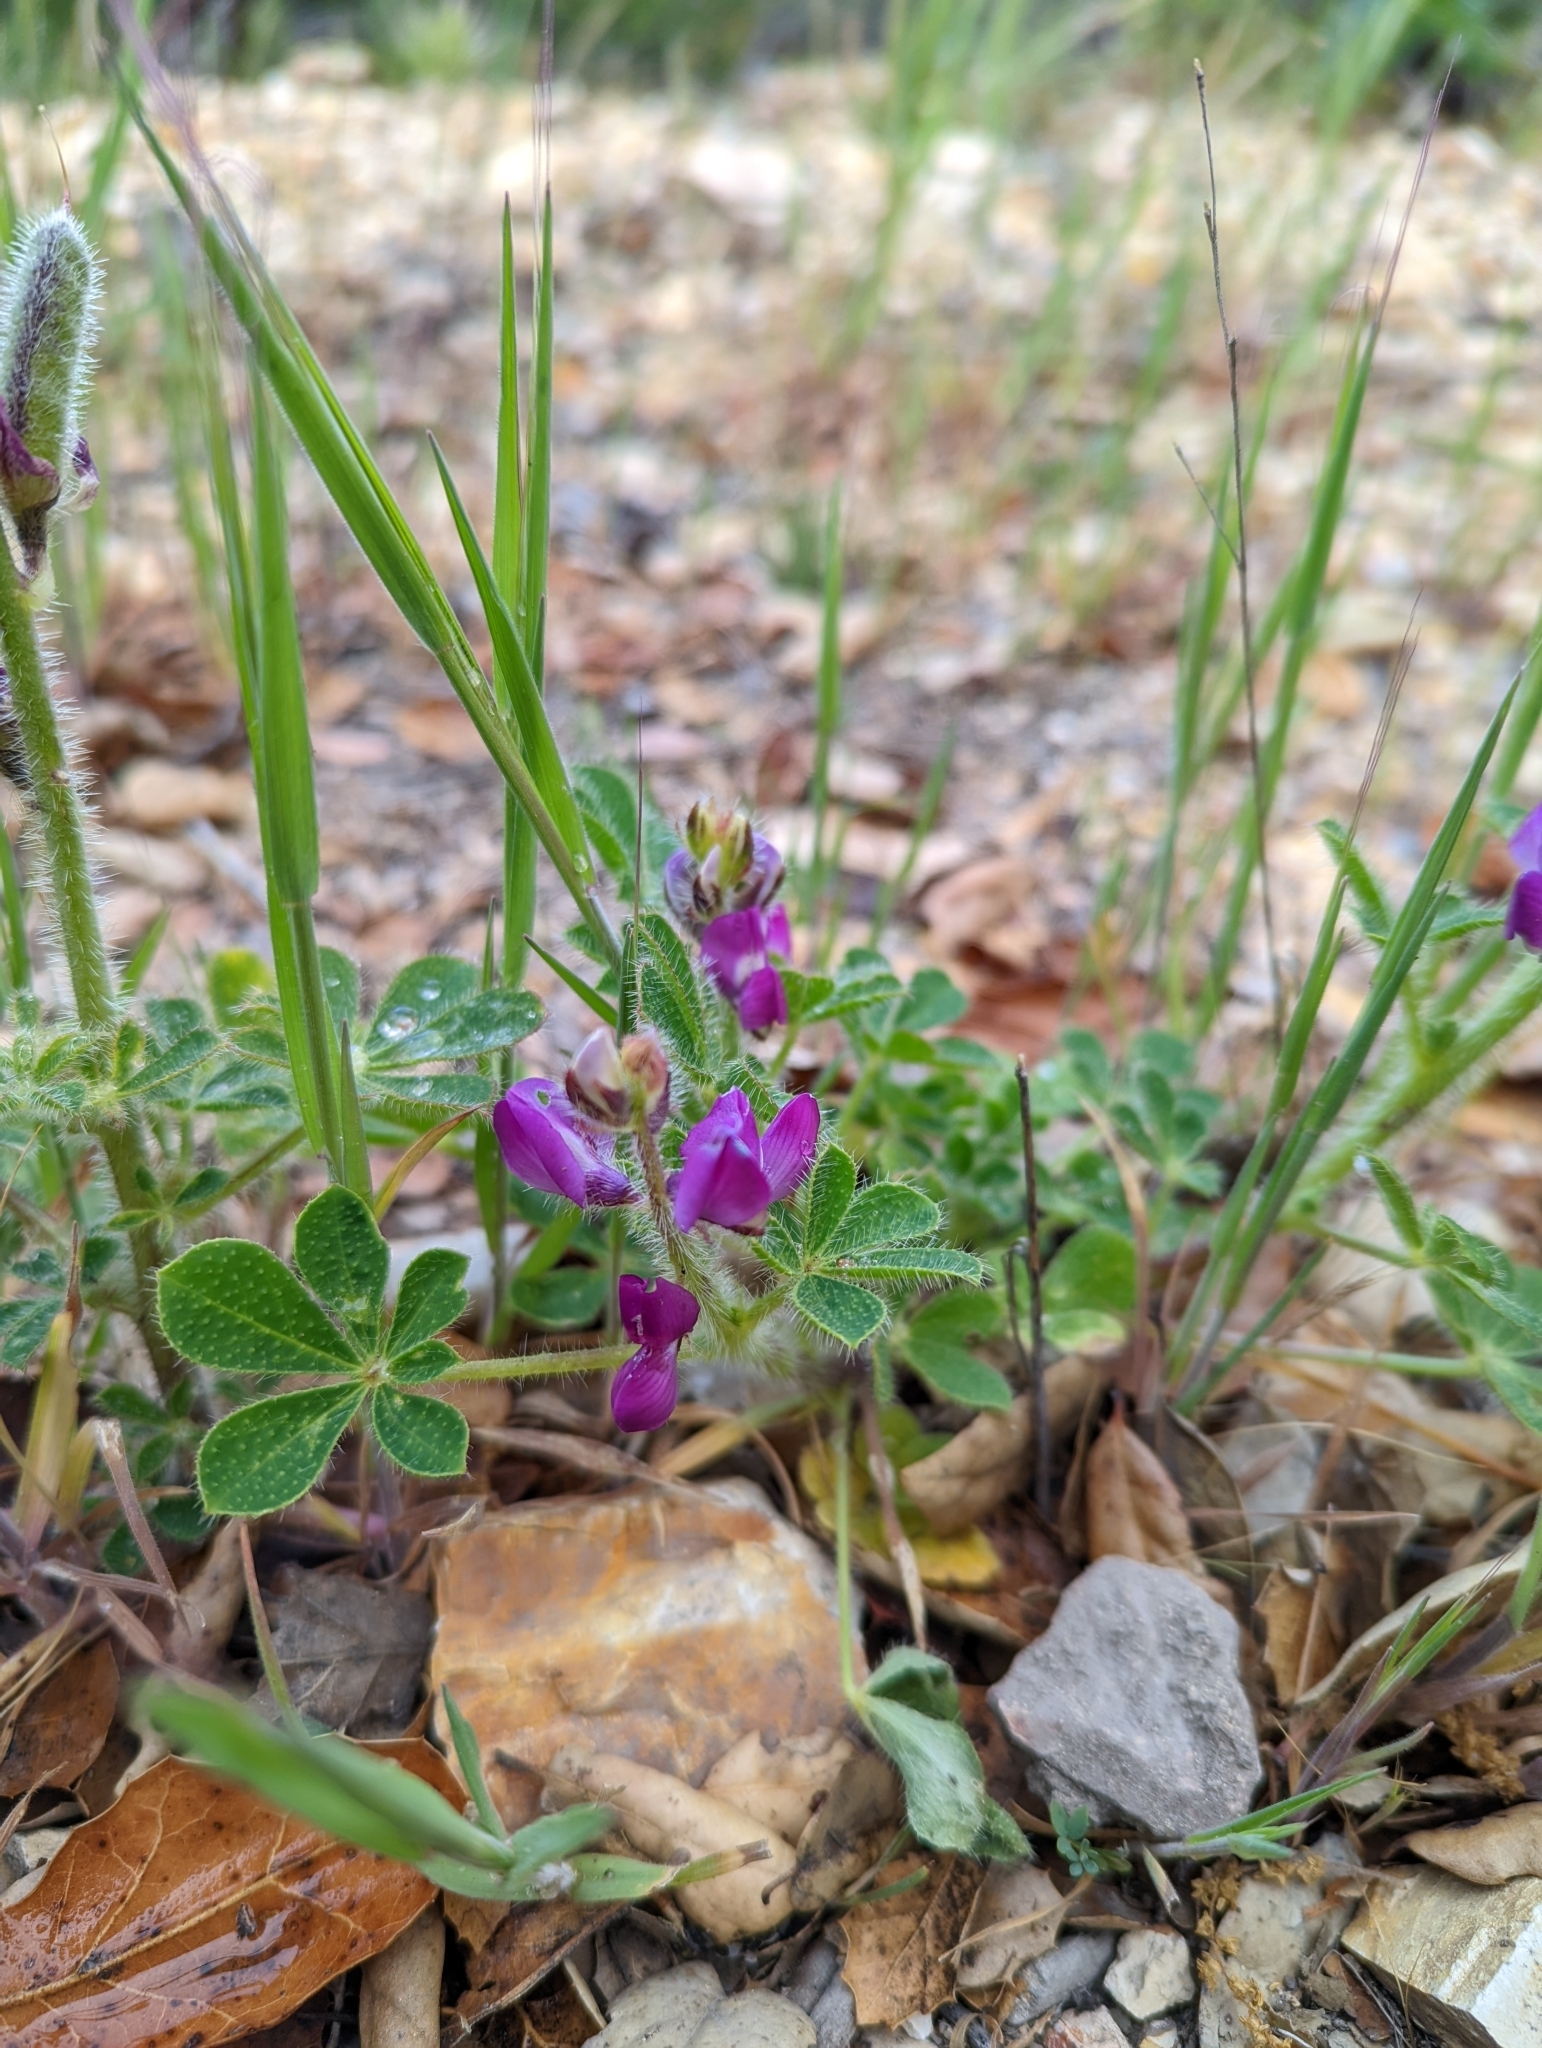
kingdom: Plantae
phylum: Tracheophyta
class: Magnoliopsida
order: Fabales
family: Fabaceae
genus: Lupinus
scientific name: Lupinus hirsutissimus
